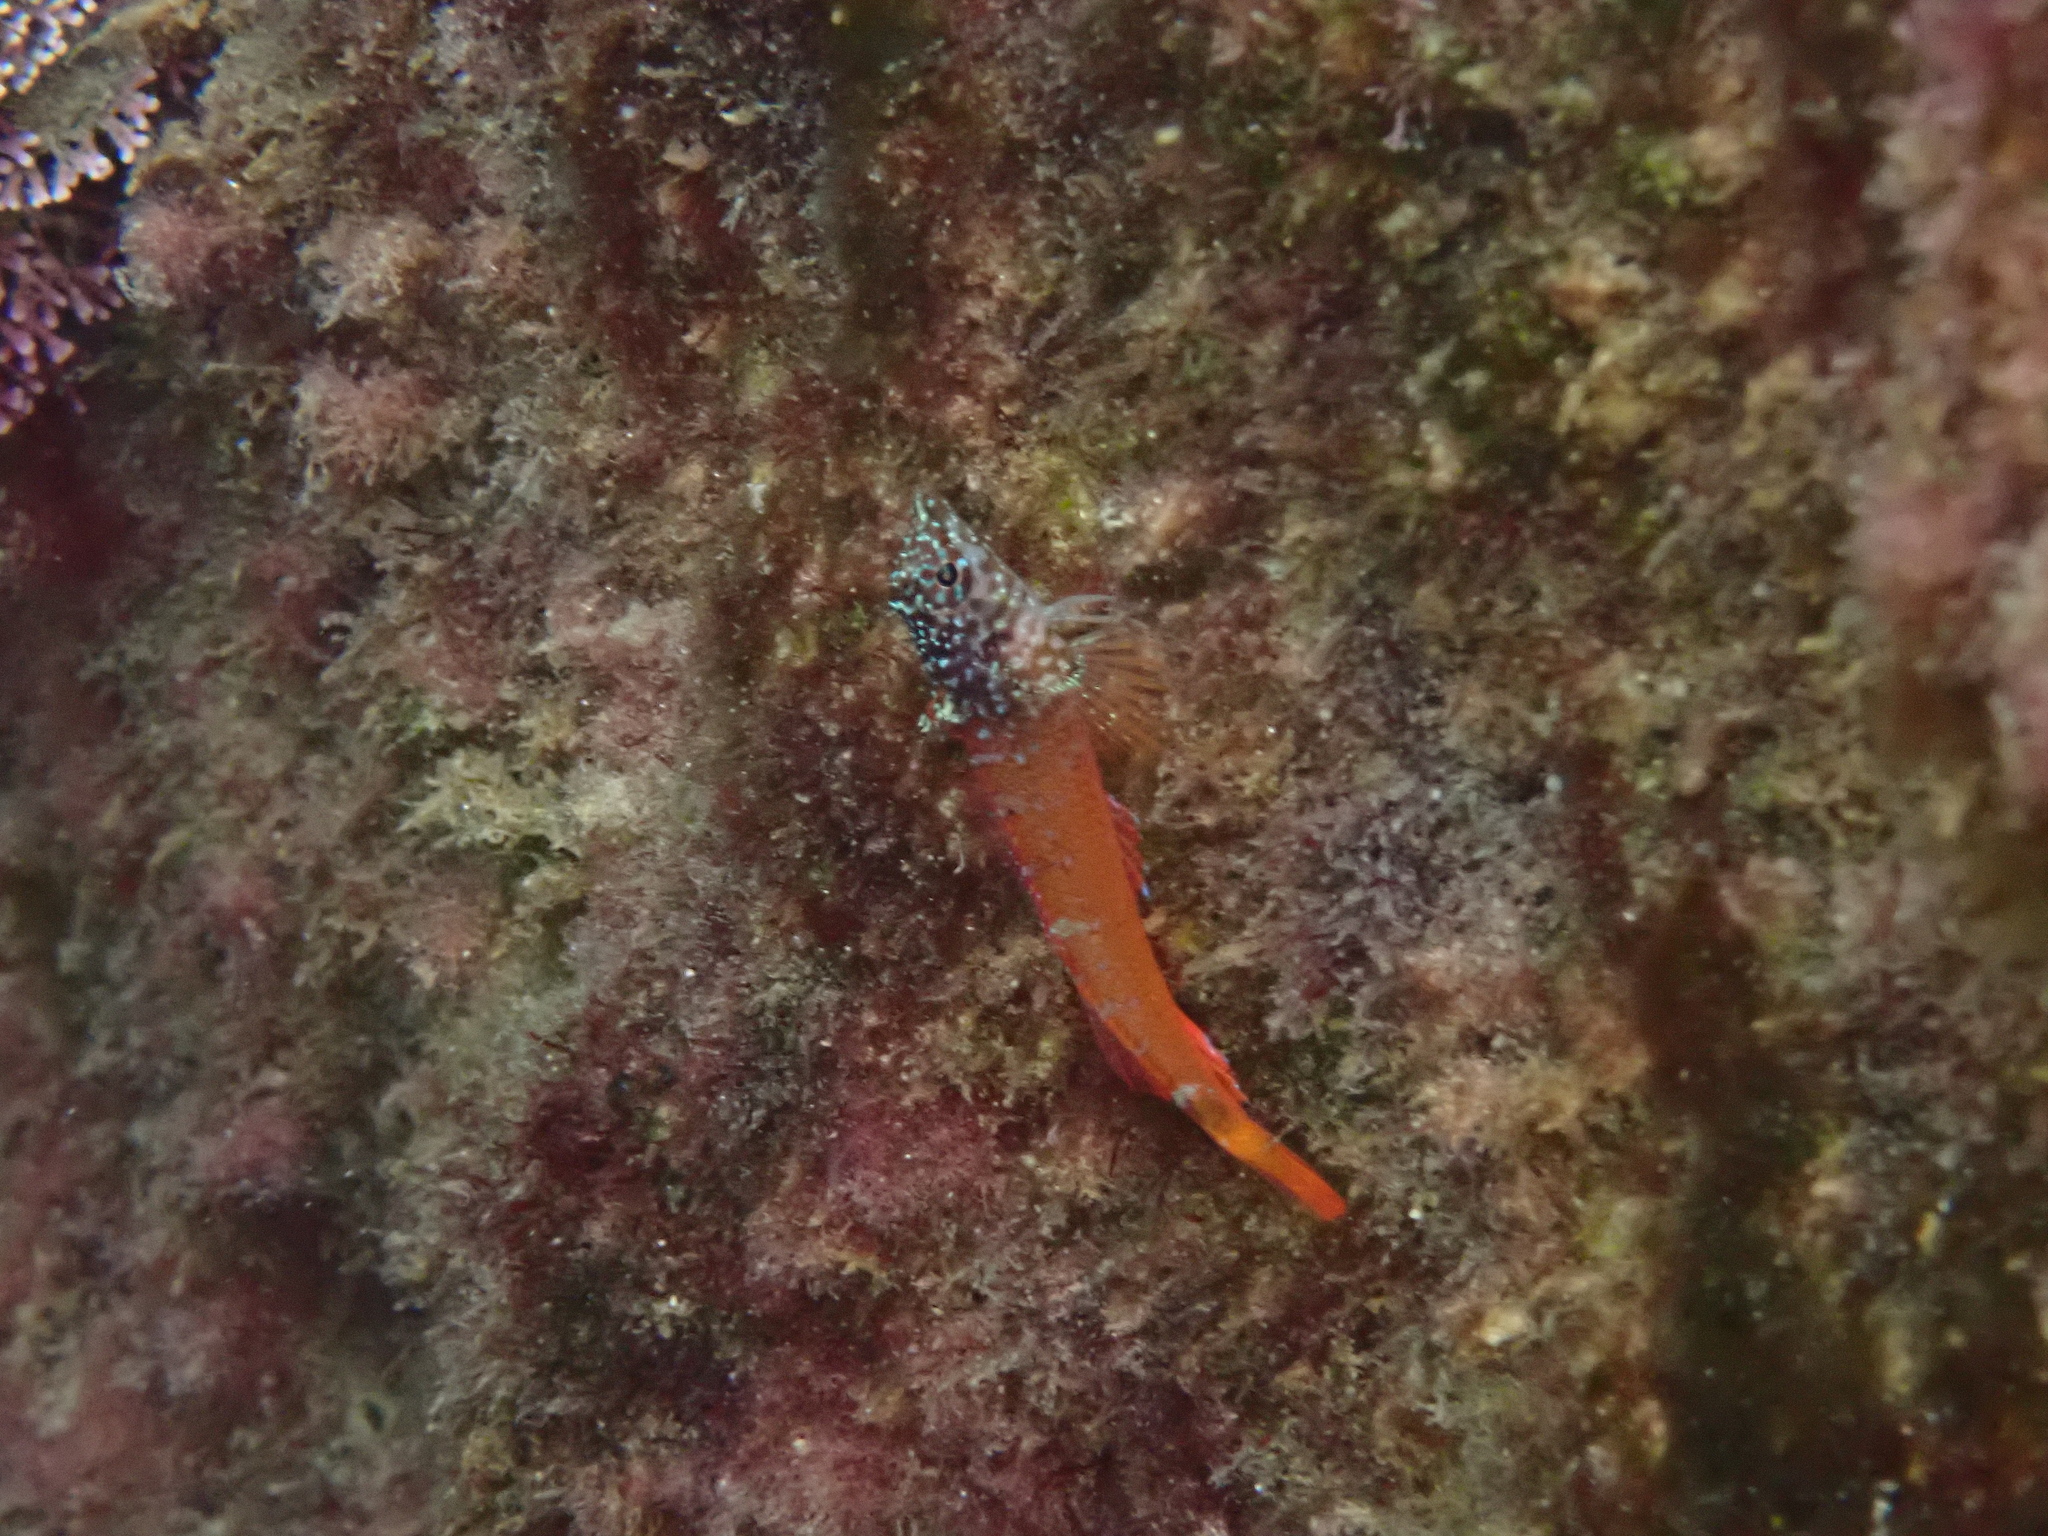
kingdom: Animalia
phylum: Chordata
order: Perciformes
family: Tripterygiidae
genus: Tripterygion
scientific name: Tripterygion melanurum
